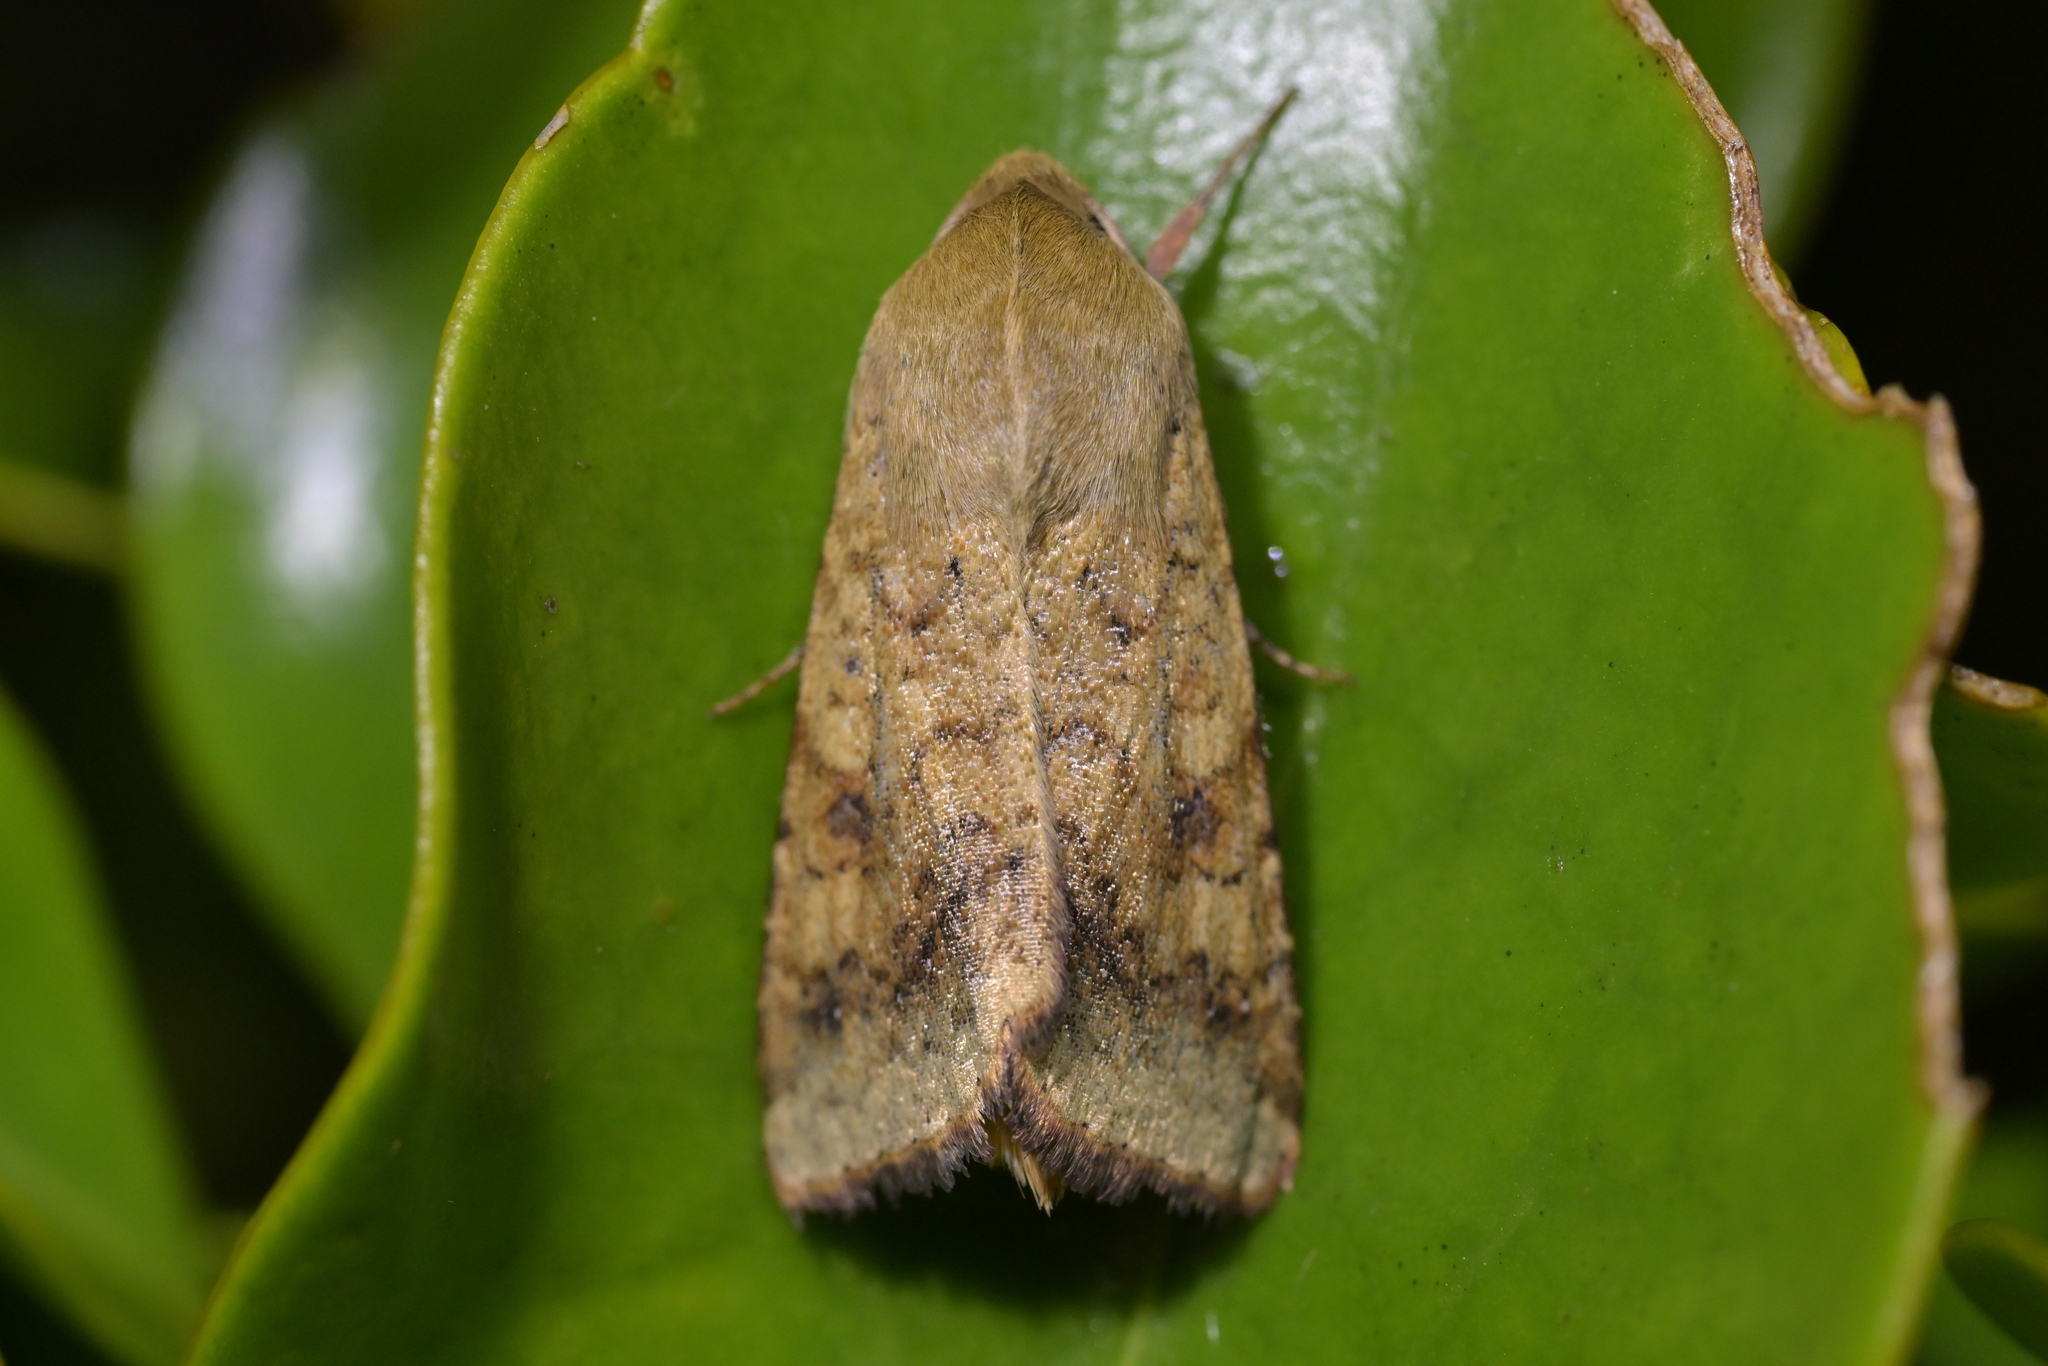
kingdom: Animalia
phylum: Arthropoda
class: Insecta
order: Lepidoptera
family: Noctuidae
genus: Helicoverpa
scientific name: Helicoverpa armigera
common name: Cotton bollworm
